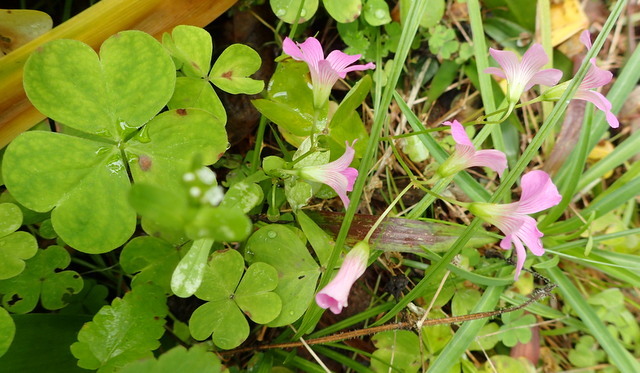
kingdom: Plantae
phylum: Tracheophyta
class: Magnoliopsida
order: Oxalidales
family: Oxalidaceae
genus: Oxalis
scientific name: Oxalis debilis
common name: Large-flowered pink-sorrel
